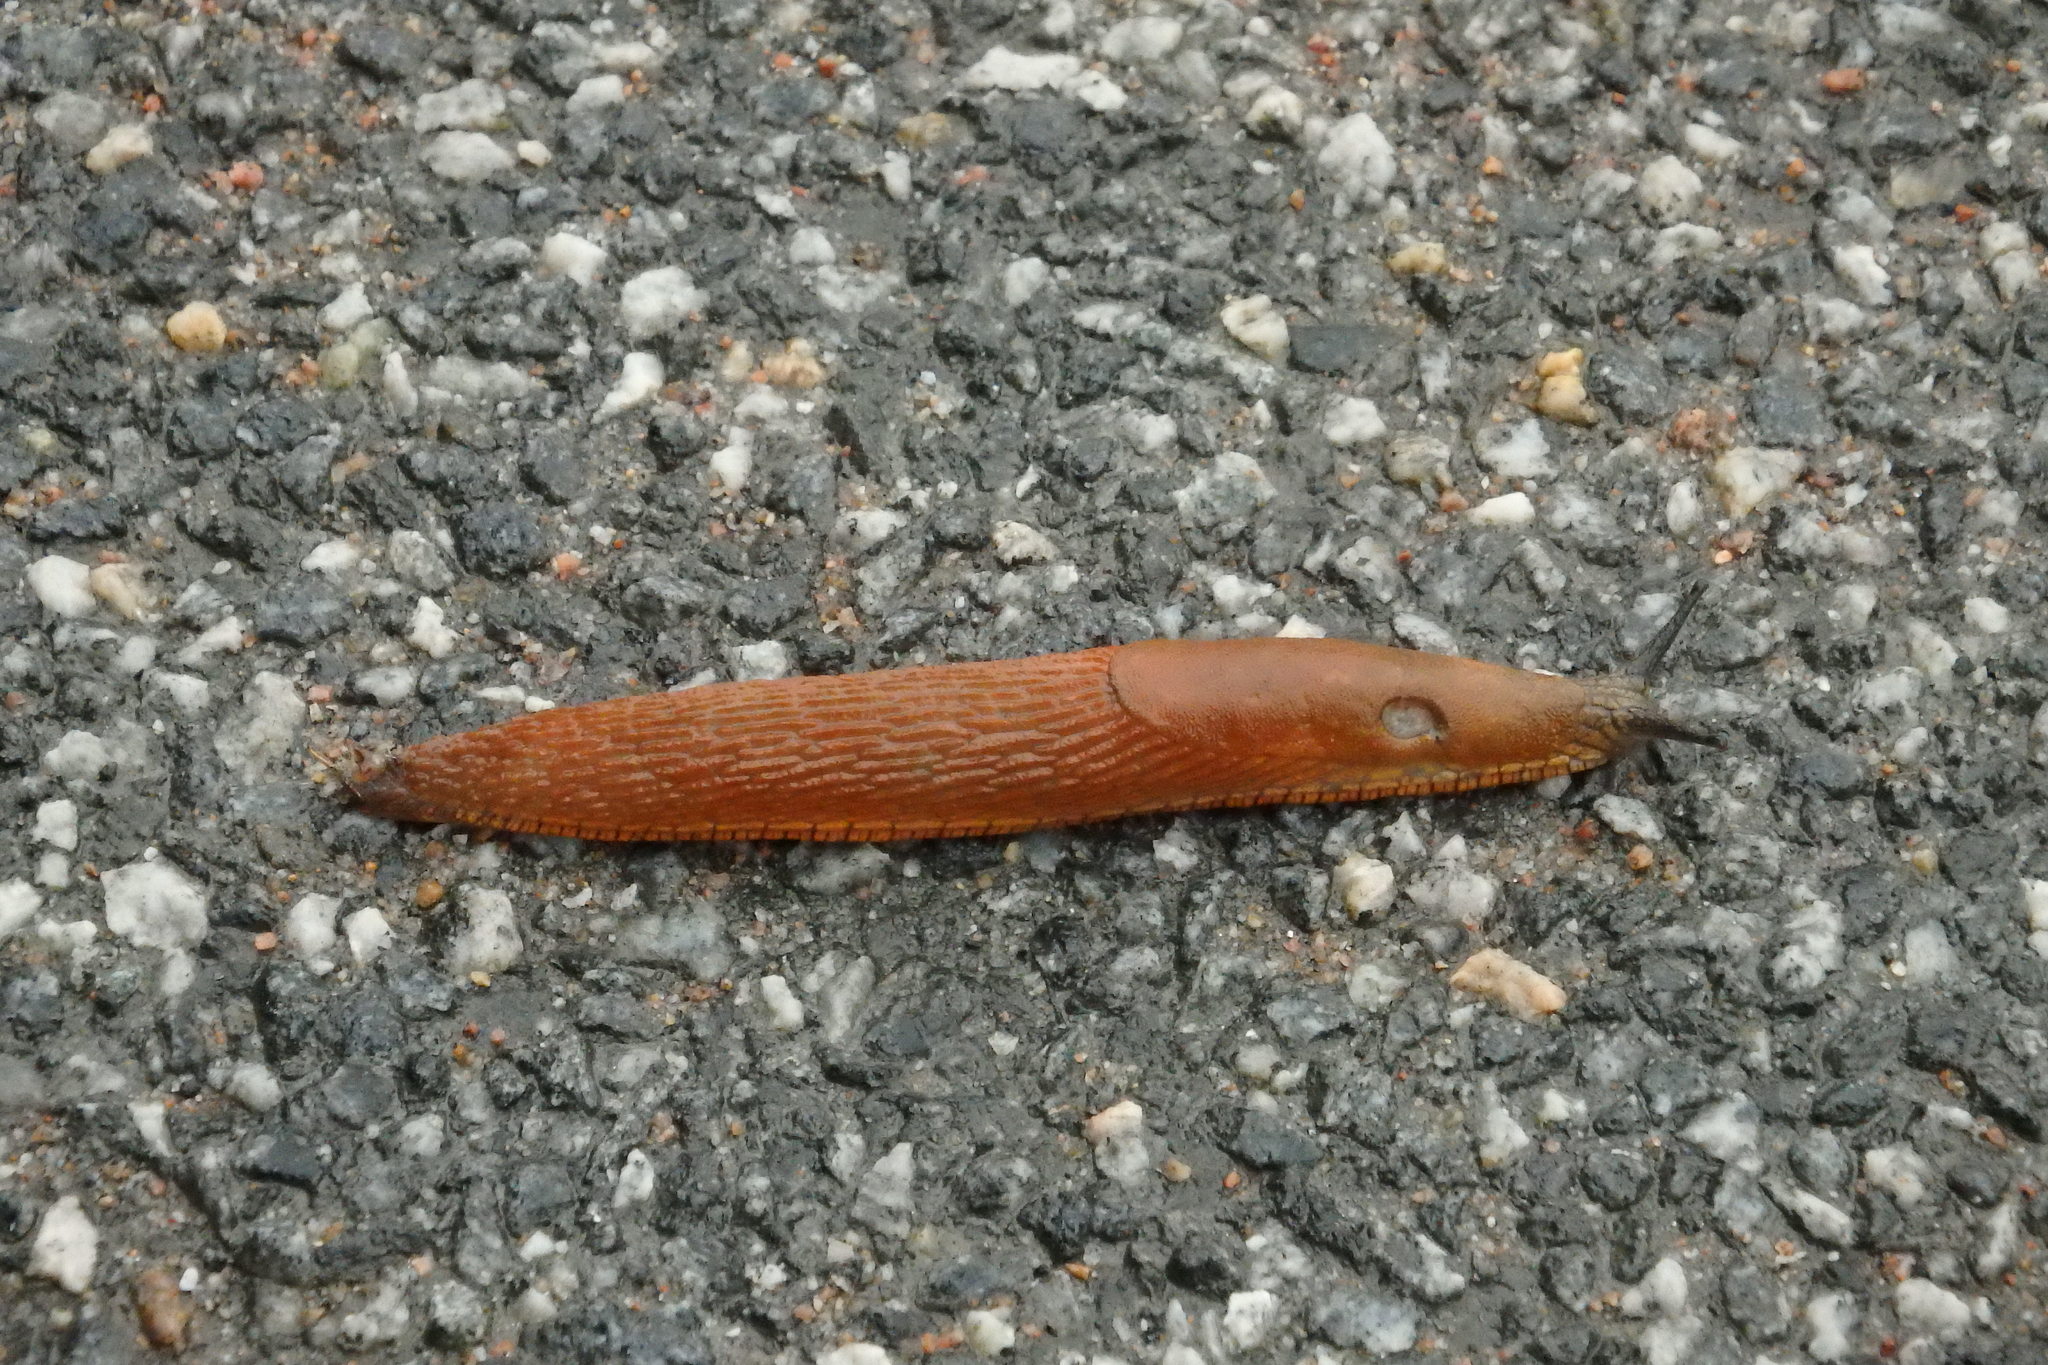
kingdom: Animalia
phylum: Mollusca
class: Gastropoda
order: Stylommatophora
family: Arionidae
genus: Arion
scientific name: Arion vulgaris
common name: Lusitanian slug
